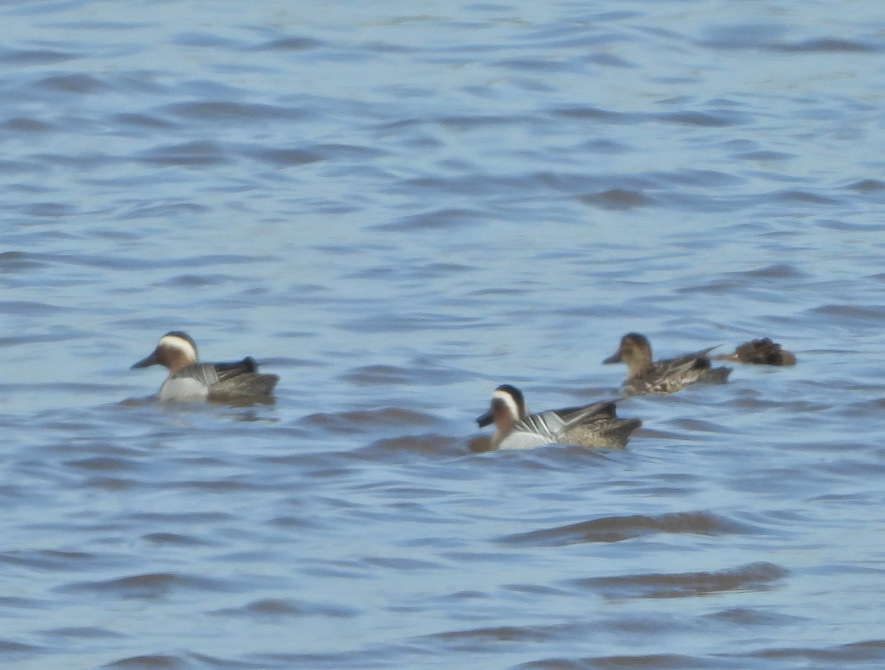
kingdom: Animalia
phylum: Chordata
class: Aves
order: Anseriformes
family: Anatidae
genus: Spatula
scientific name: Spatula querquedula
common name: Garganey
